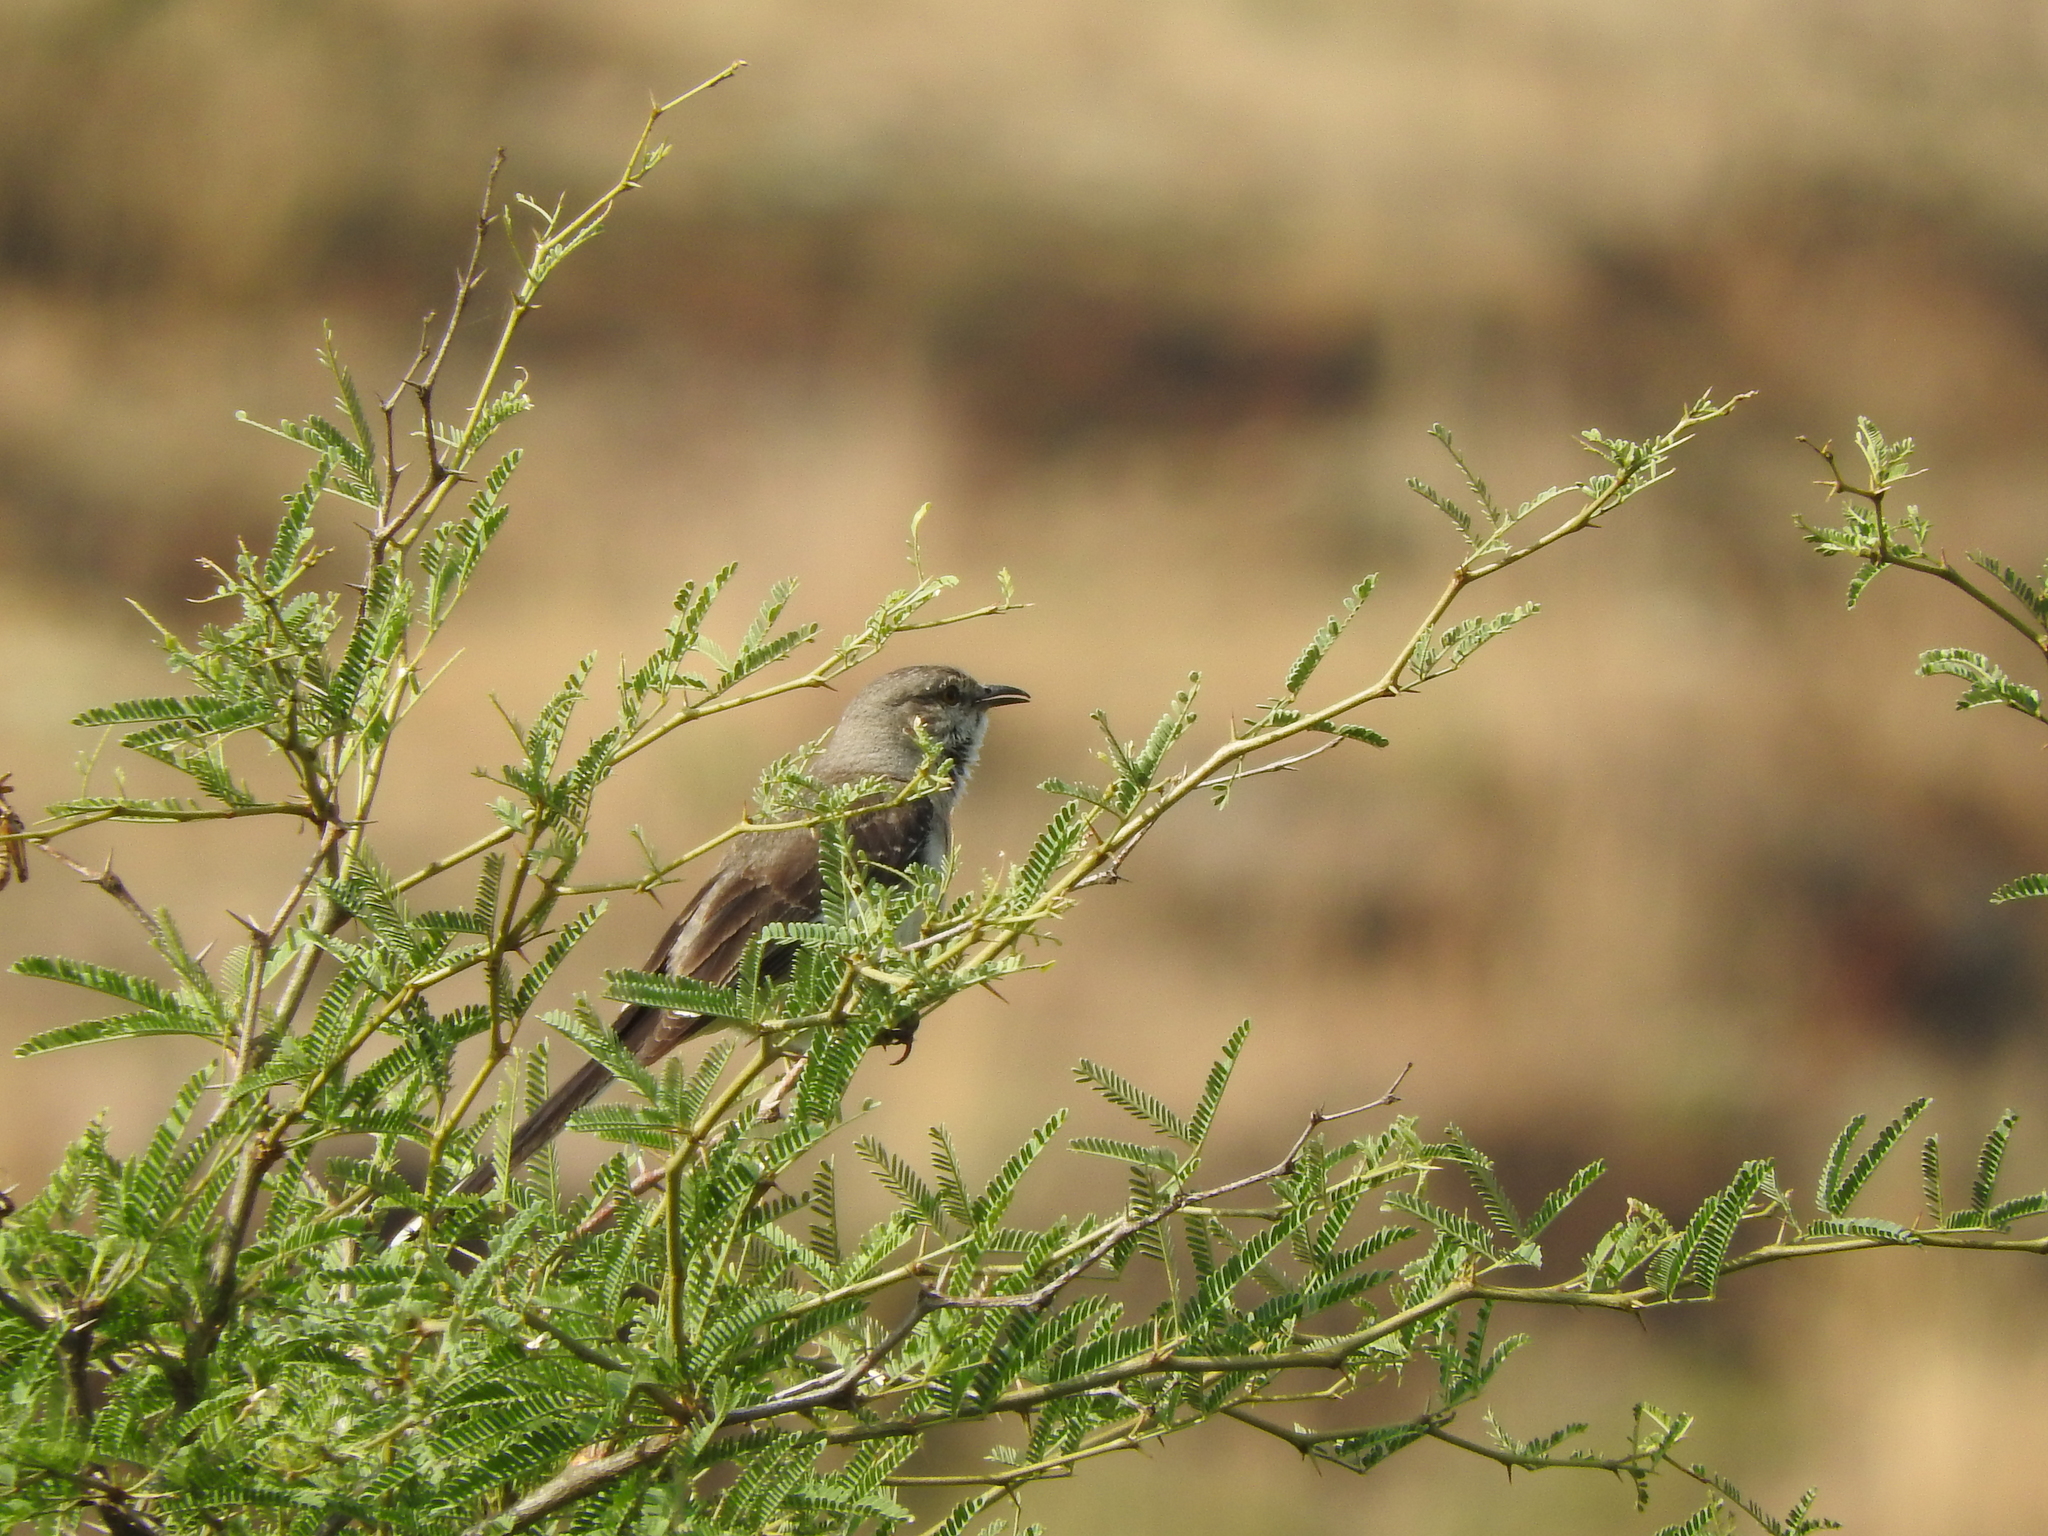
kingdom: Animalia
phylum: Chordata
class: Aves
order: Passeriformes
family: Mimidae
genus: Mimus
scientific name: Mimus polyglottos
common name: Northern mockingbird
